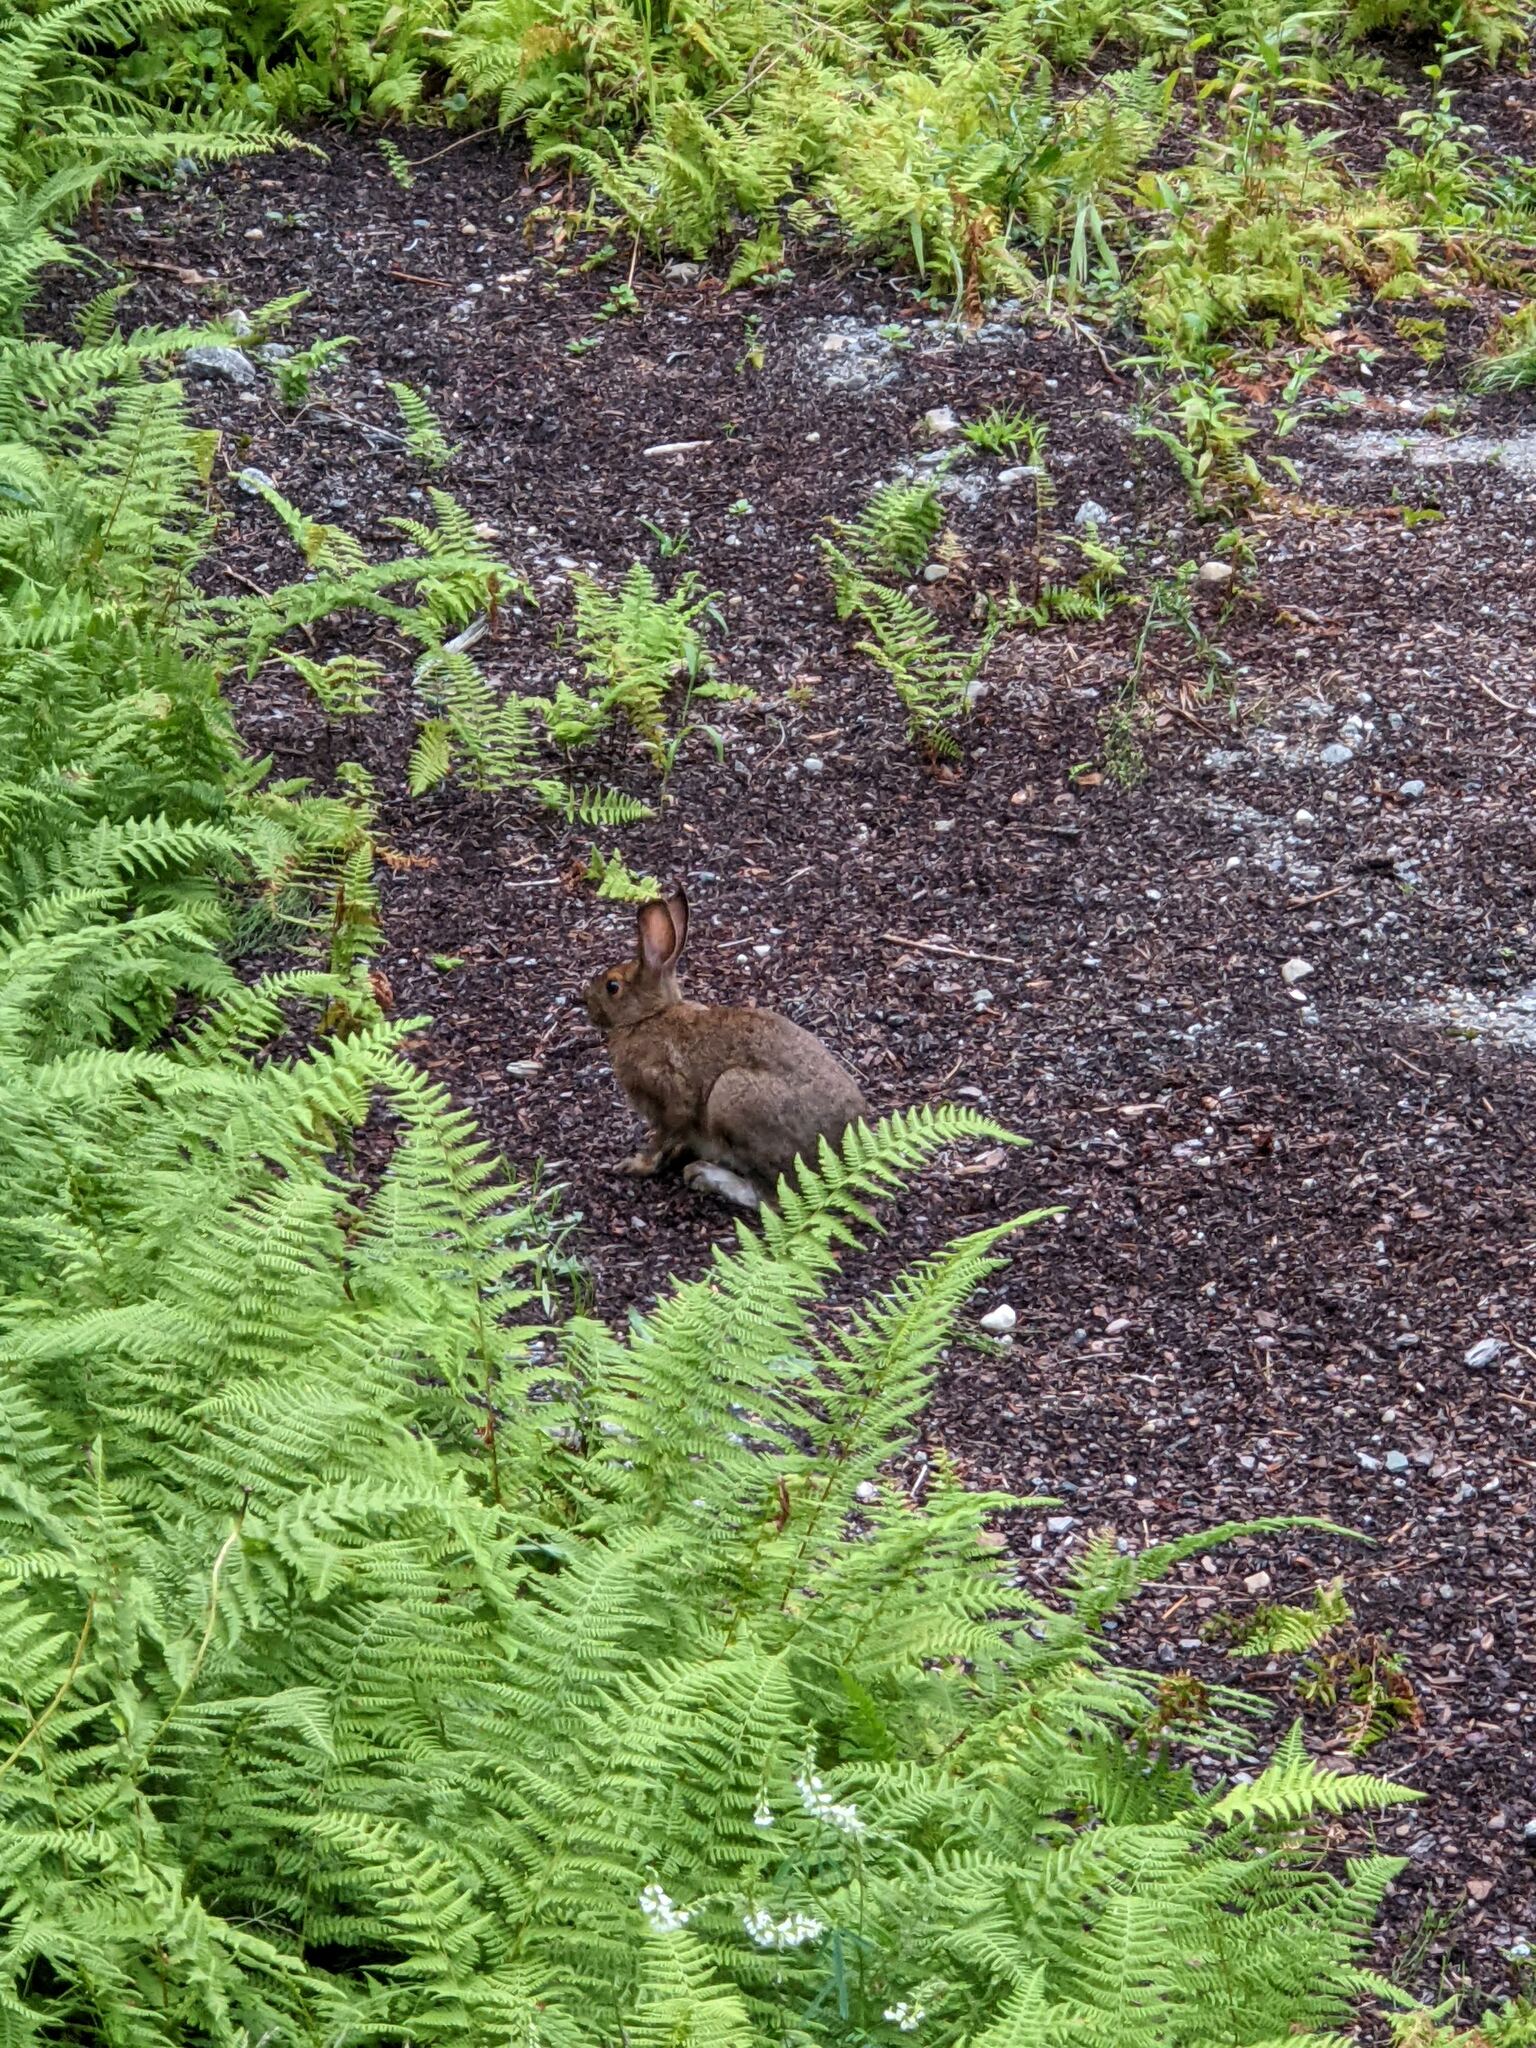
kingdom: Animalia
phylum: Chordata
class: Mammalia
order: Lagomorpha
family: Leporidae
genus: Sylvilagus
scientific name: Sylvilagus floridanus
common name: Eastern cottontail
